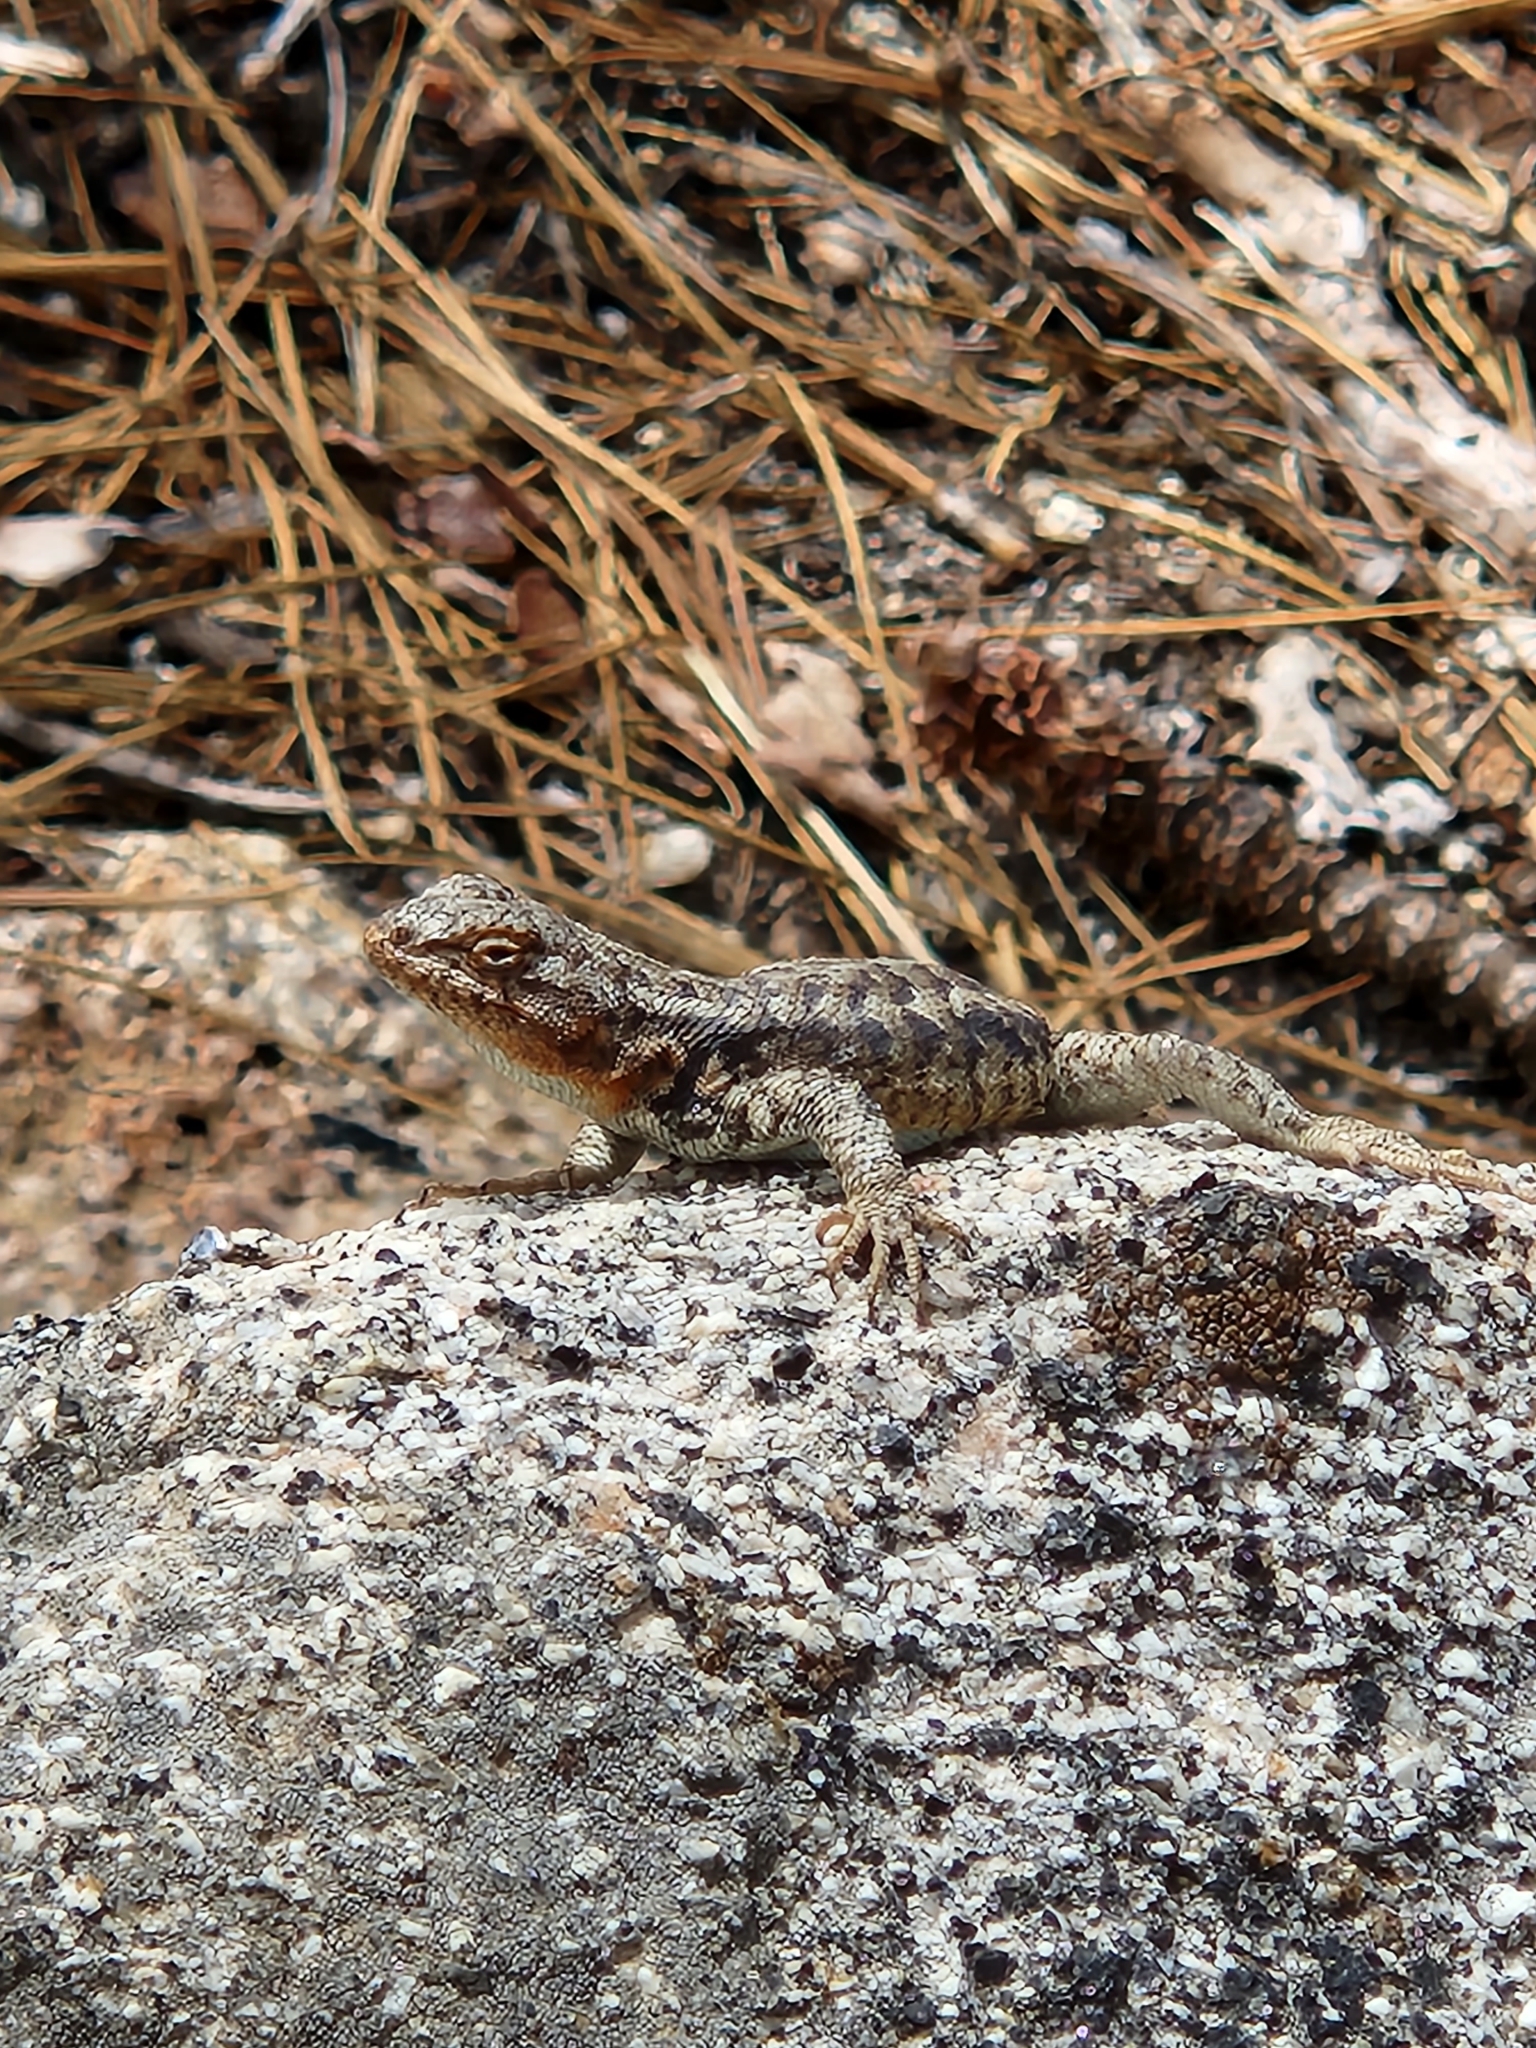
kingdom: Animalia
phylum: Chordata
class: Squamata
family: Phrynosomatidae
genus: Sceloporus
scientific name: Sceloporus graciosus
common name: Sagebrush lizard
